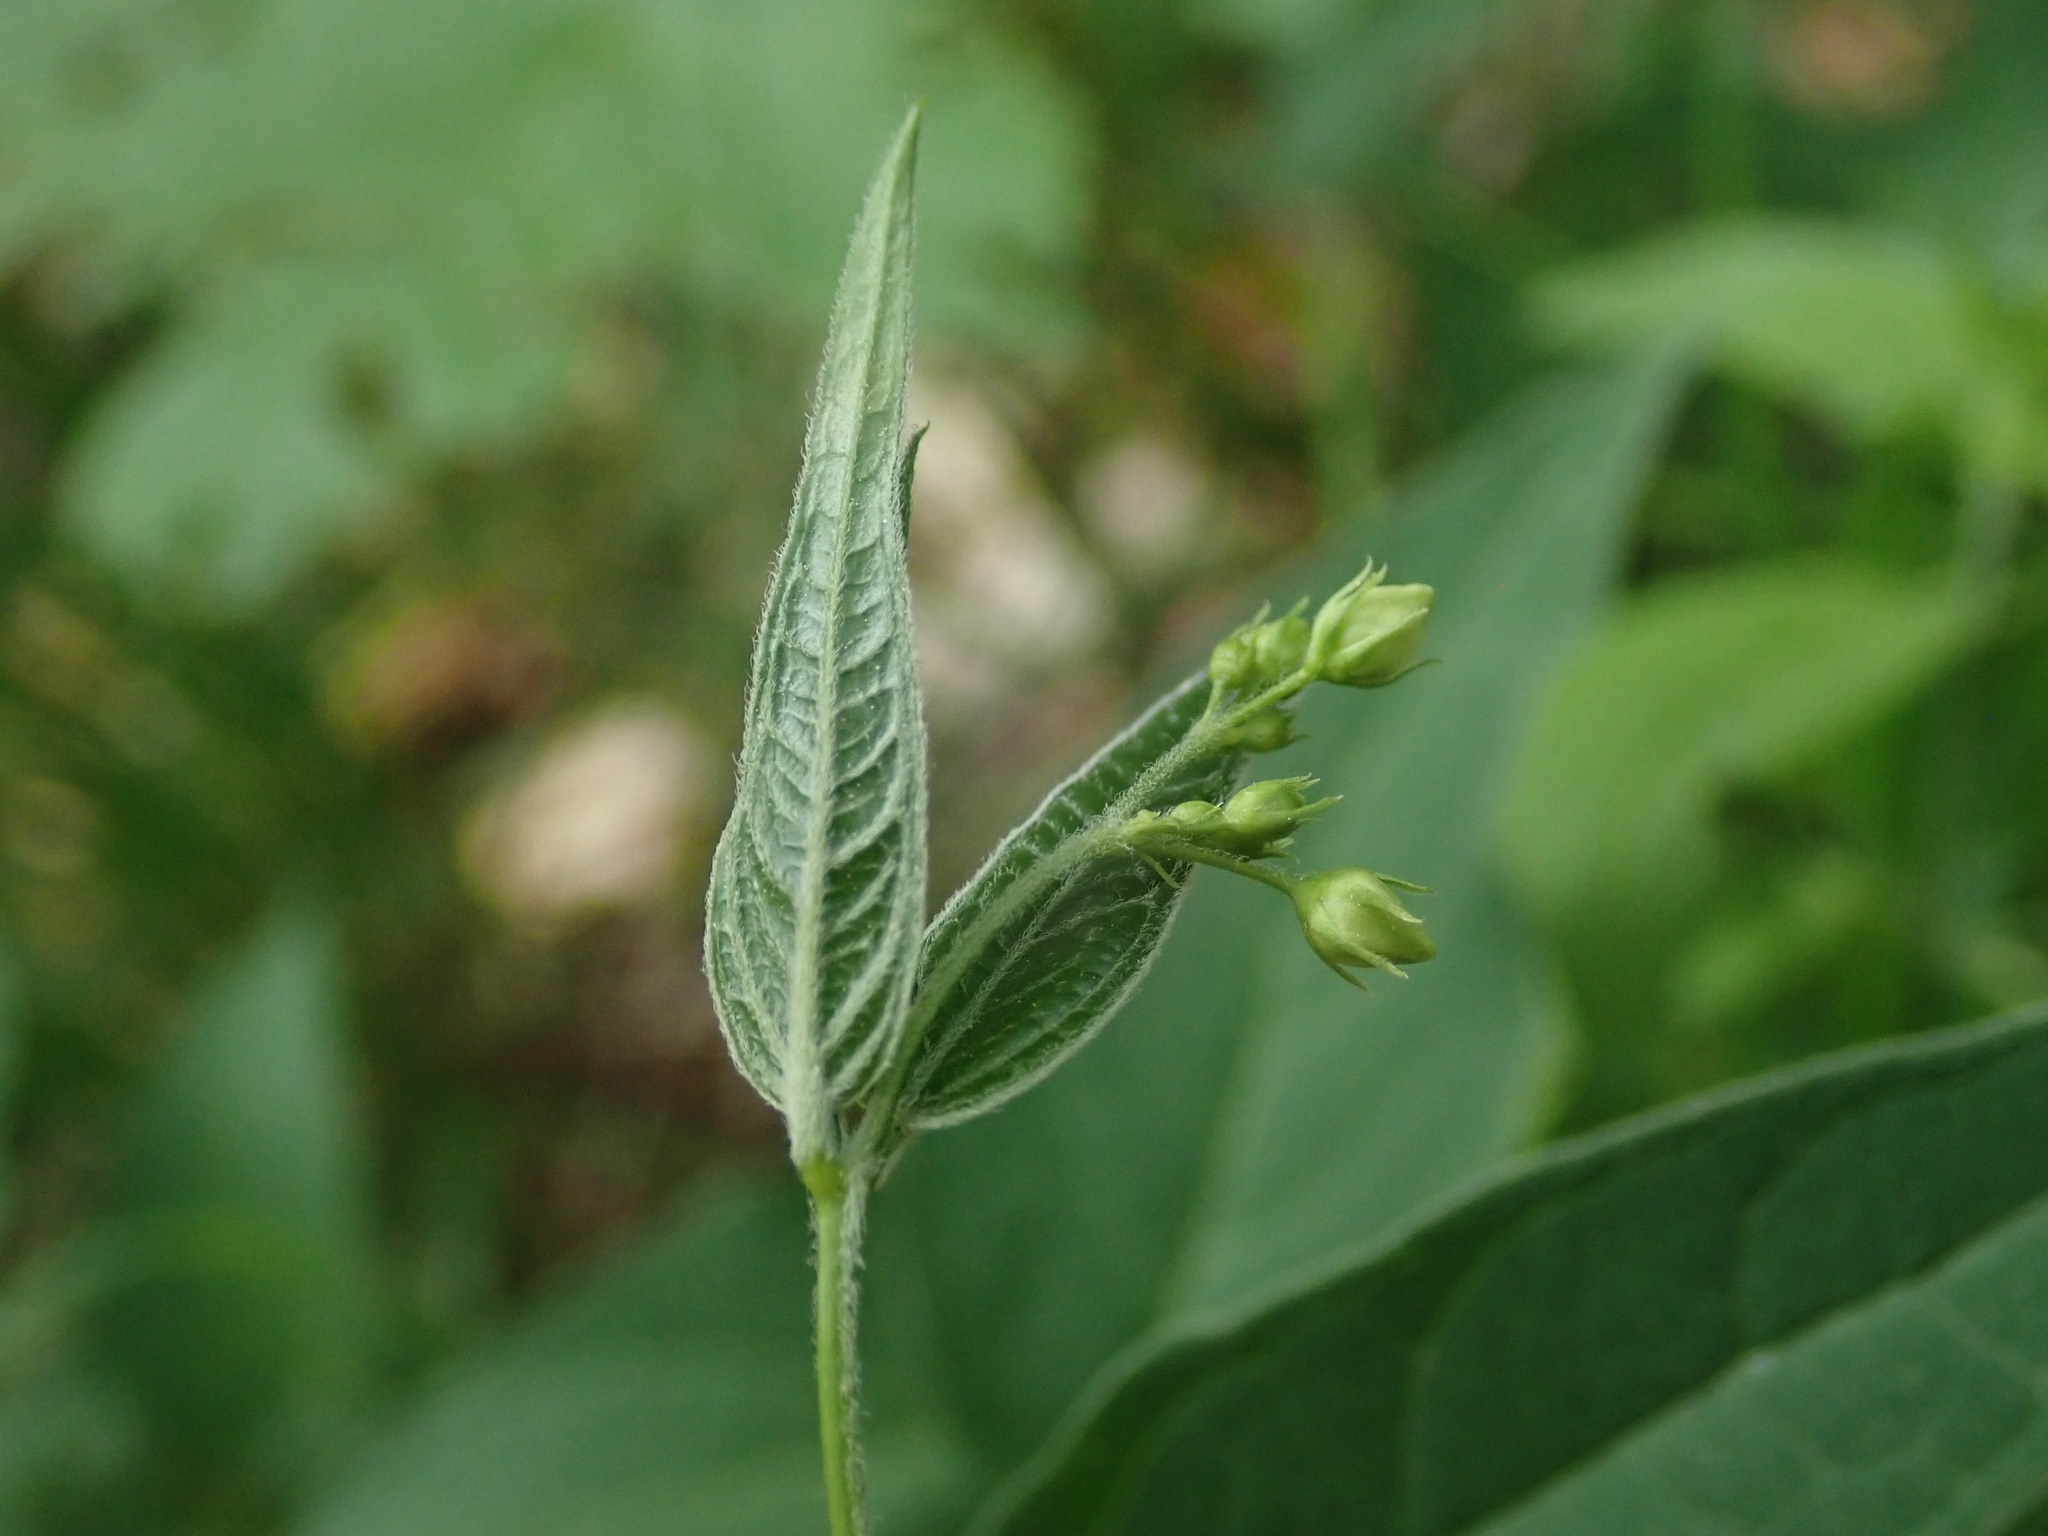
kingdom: Plantae
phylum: Tracheophyta
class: Magnoliopsida
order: Gentianales
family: Apocynaceae
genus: Vincetoxicum
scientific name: Vincetoxicum hirundinaria
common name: White swallowwort
